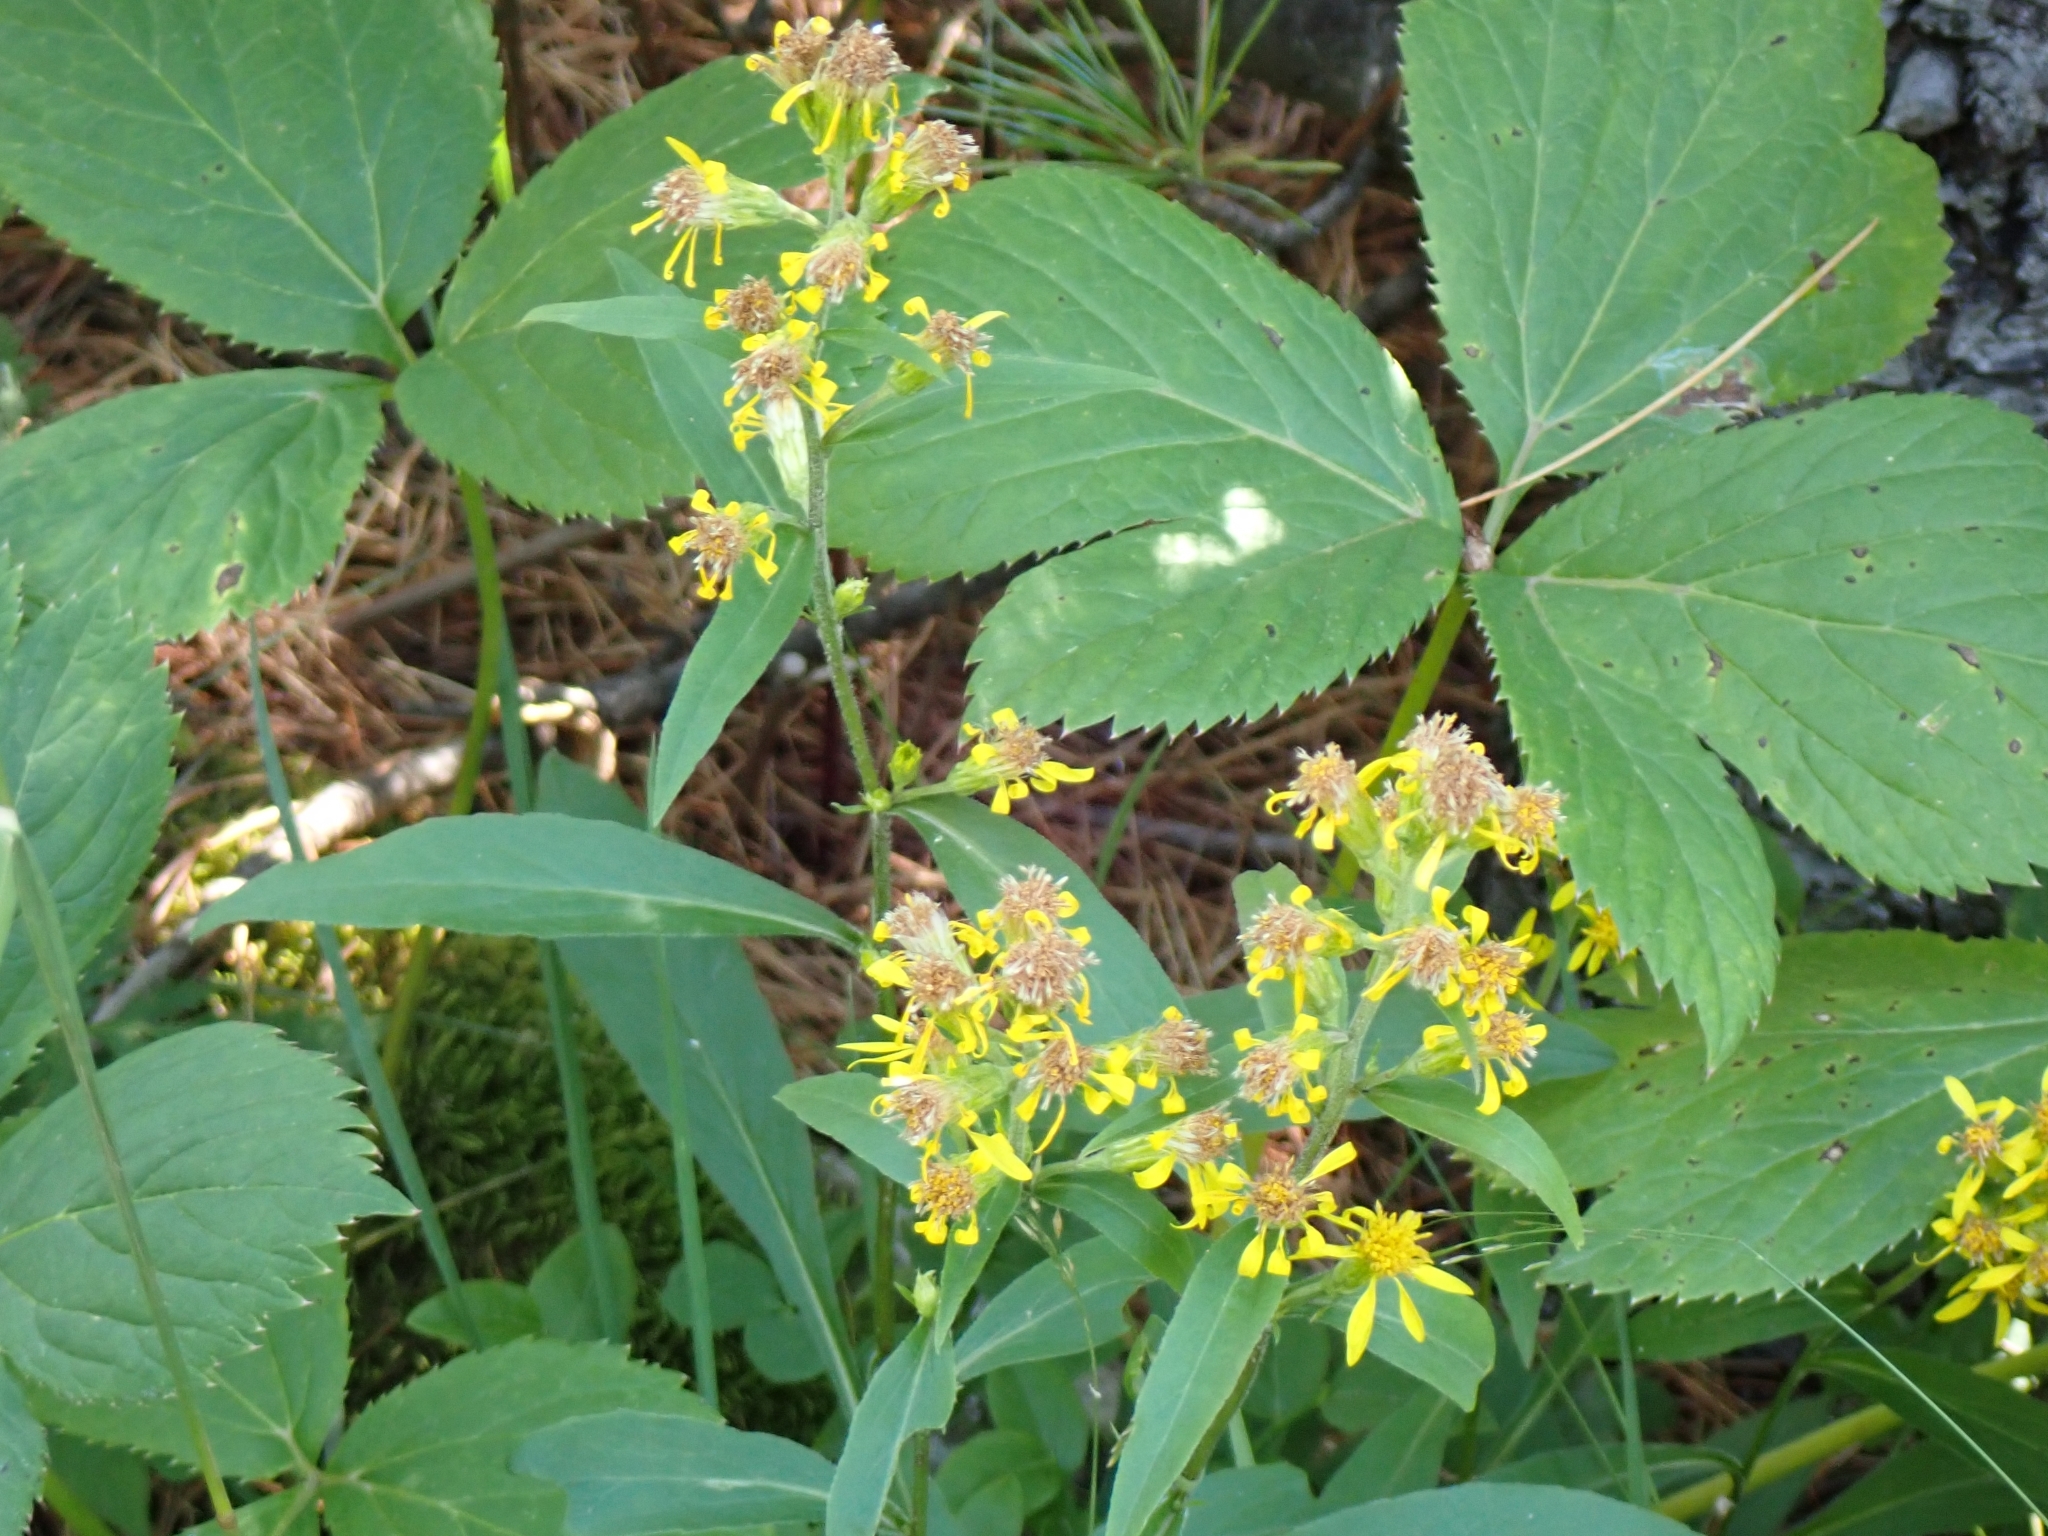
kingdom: Plantae
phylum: Tracheophyta
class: Magnoliopsida
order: Asterales
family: Asteraceae
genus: Senecio
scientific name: Senecio ovatus
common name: Wood ragwort
